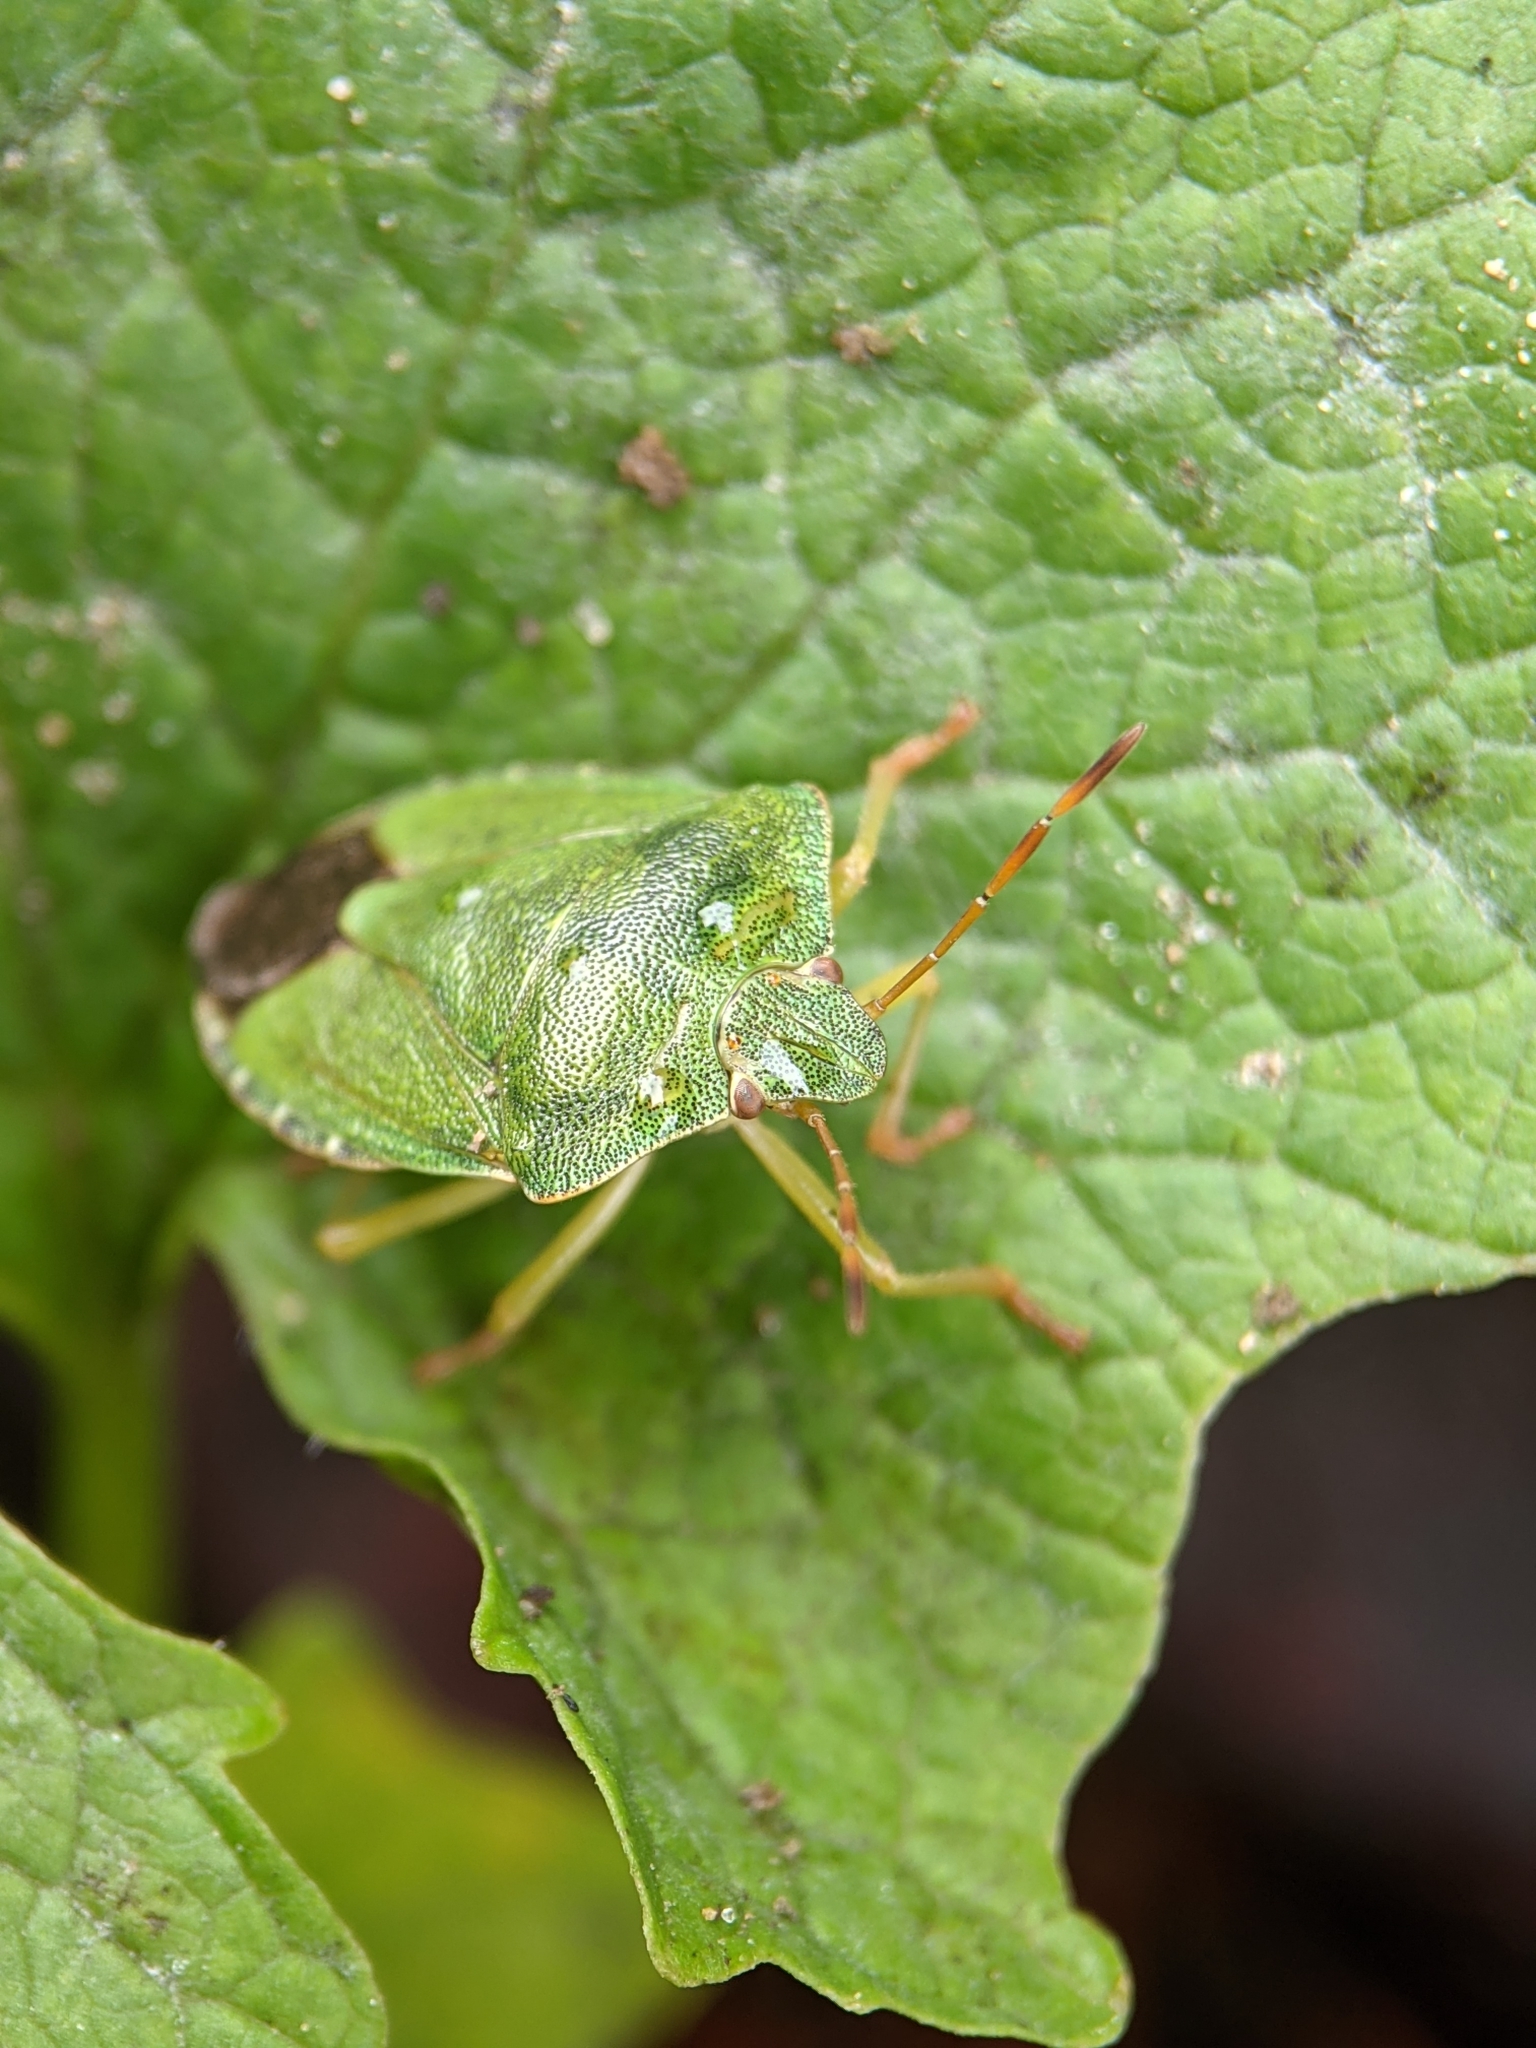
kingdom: Animalia
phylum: Arthropoda
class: Insecta
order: Hemiptera
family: Pentatomidae
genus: Palomena
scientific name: Palomena prasina
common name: Green shieldbug
